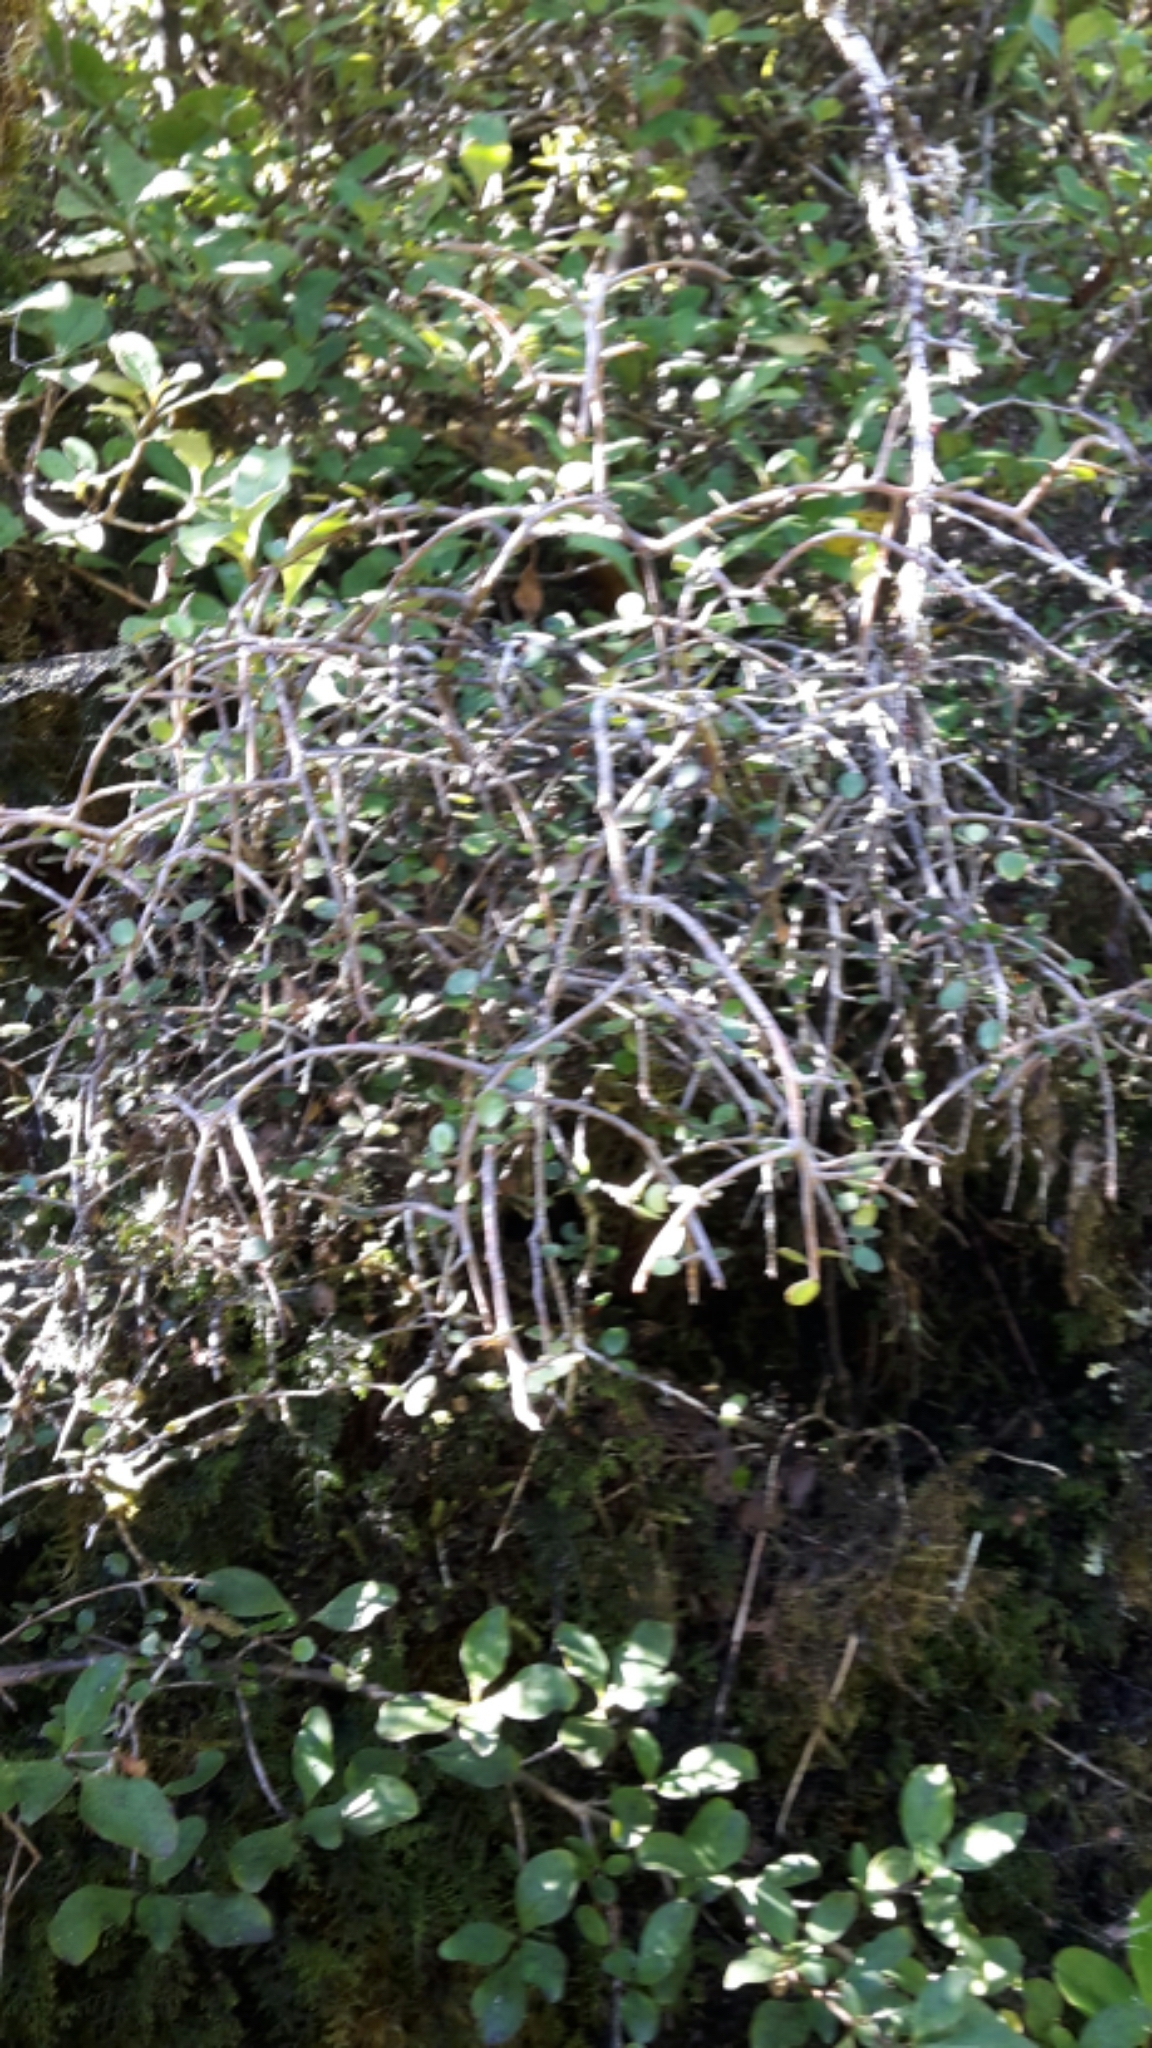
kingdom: Plantae
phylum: Tracheophyta
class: Magnoliopsida
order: Ericales
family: Primulaceae
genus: Myrsine
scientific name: Myrsine divaricata
